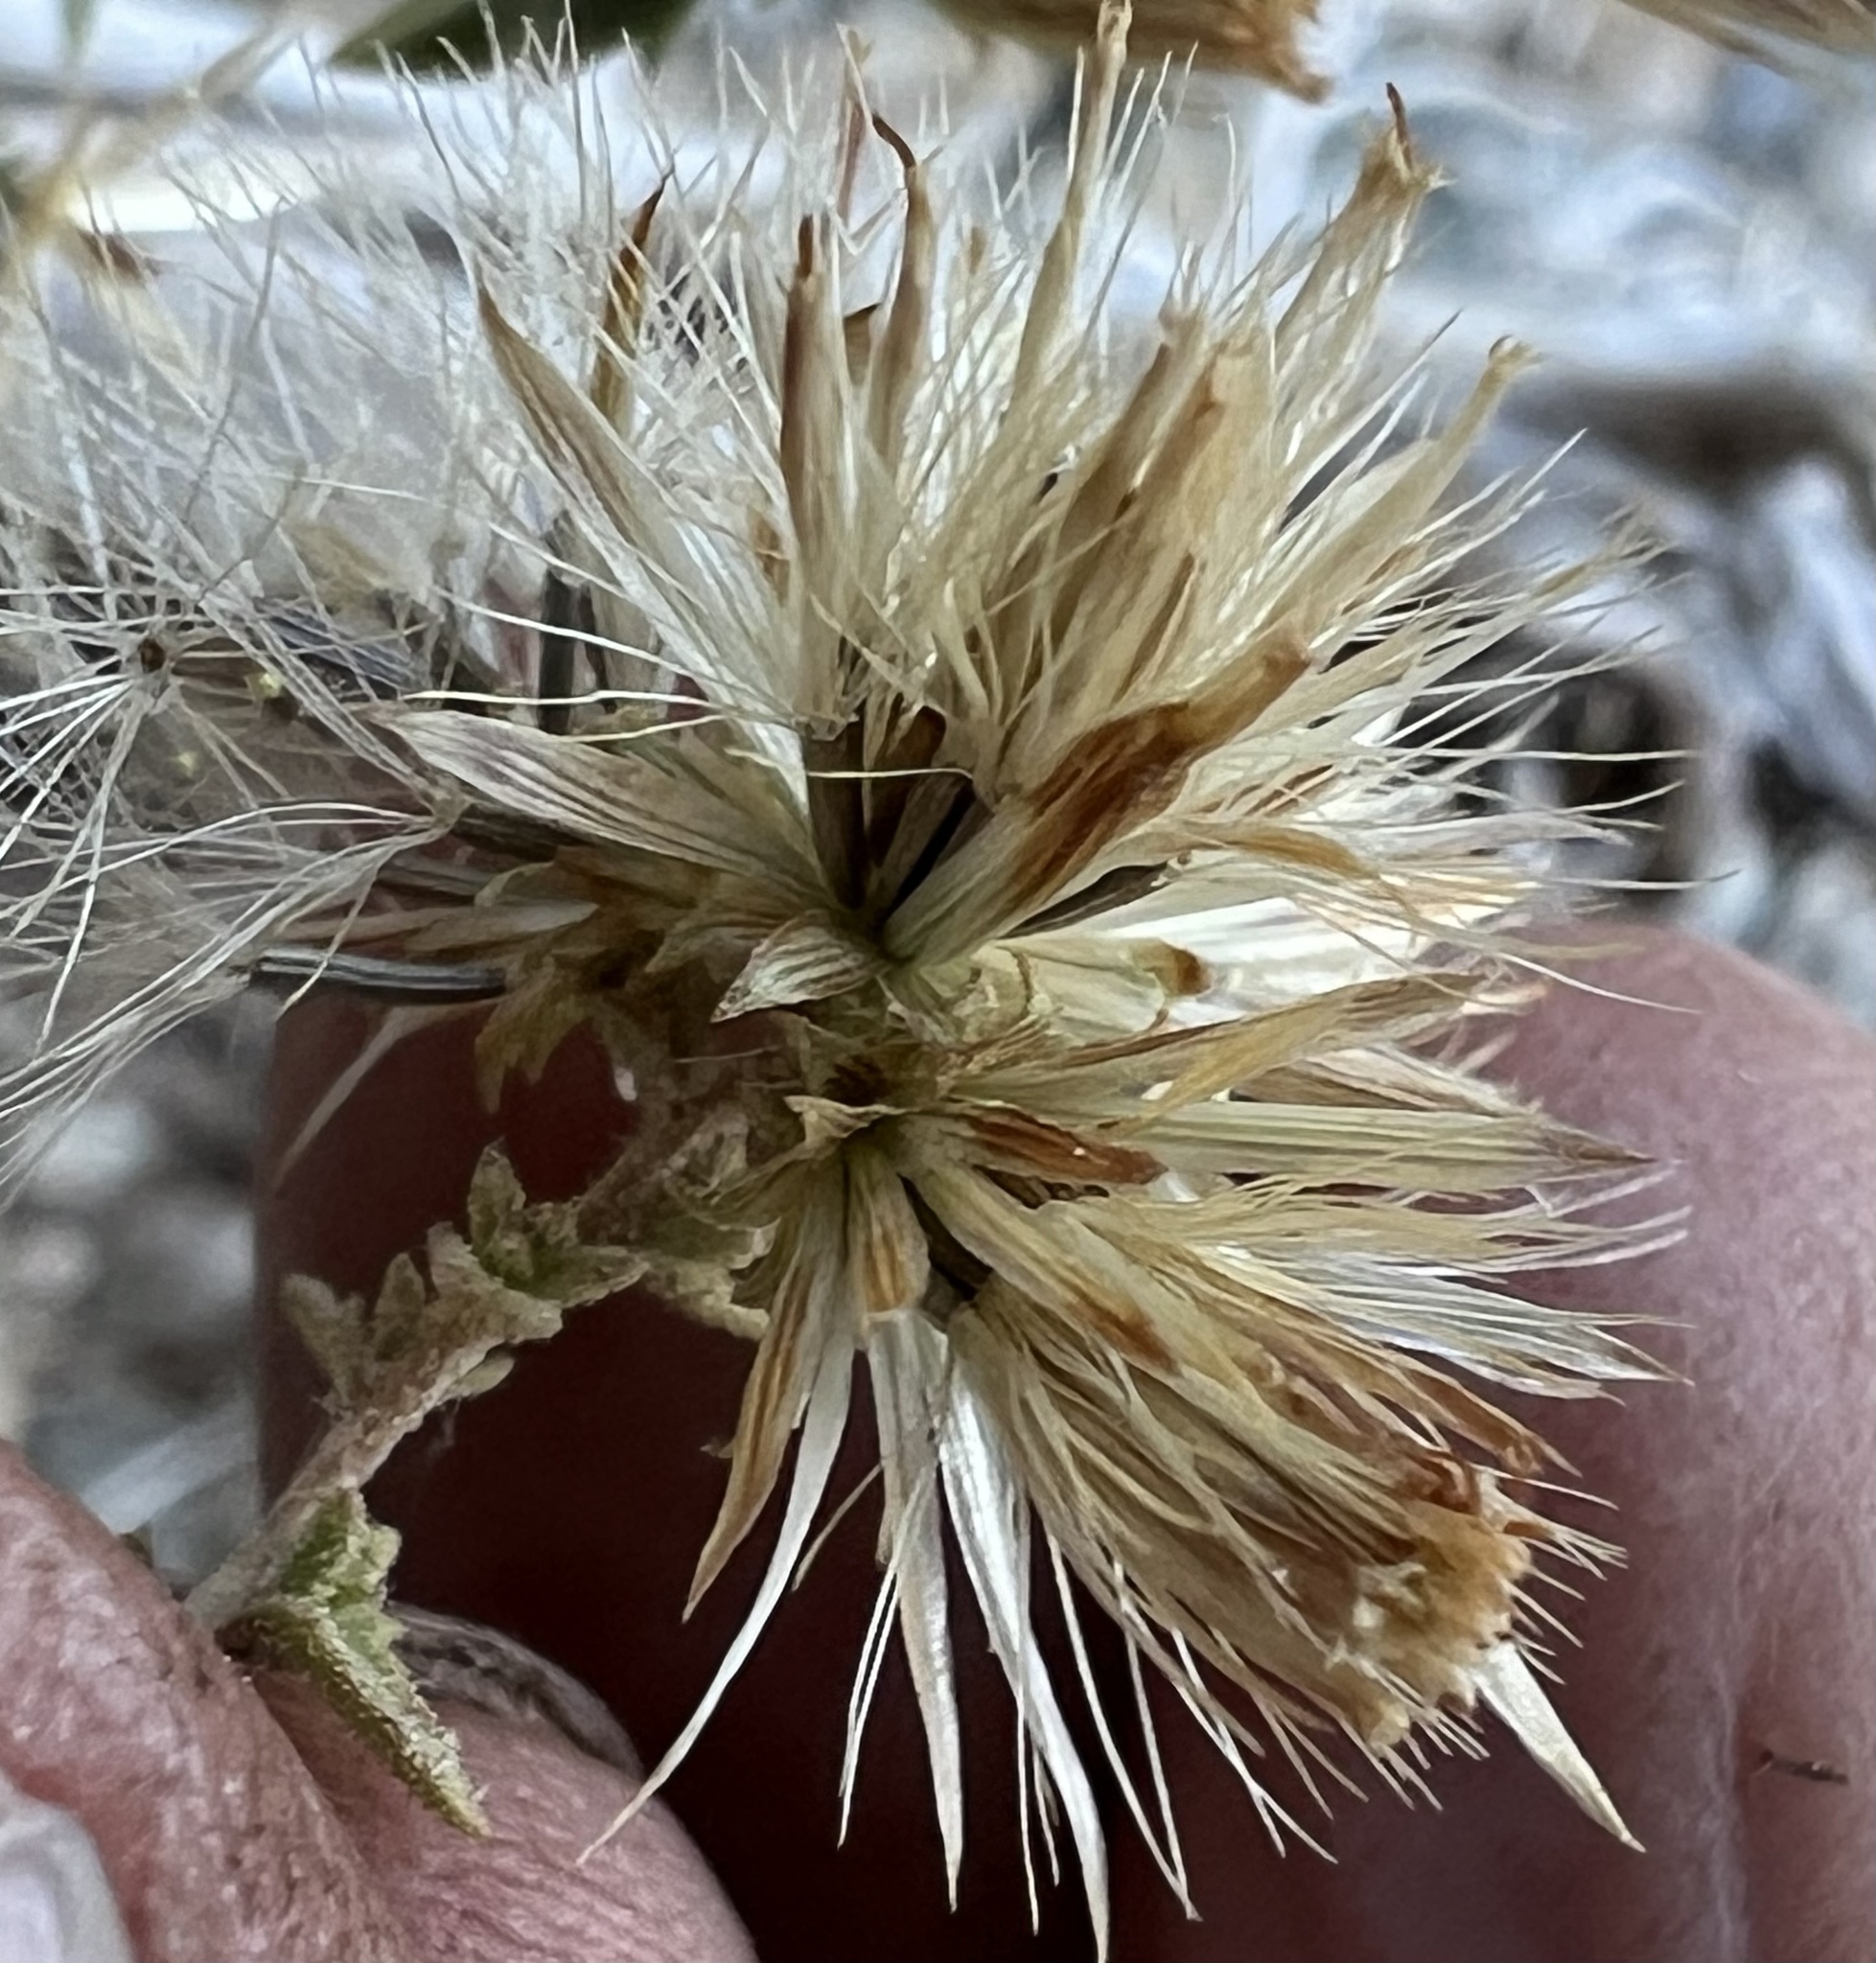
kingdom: Plantae
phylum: Tracheophyta
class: Magnoliopsida
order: Asterales
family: Asteraceae
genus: Brickellia
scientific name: Brickellia microphylla
